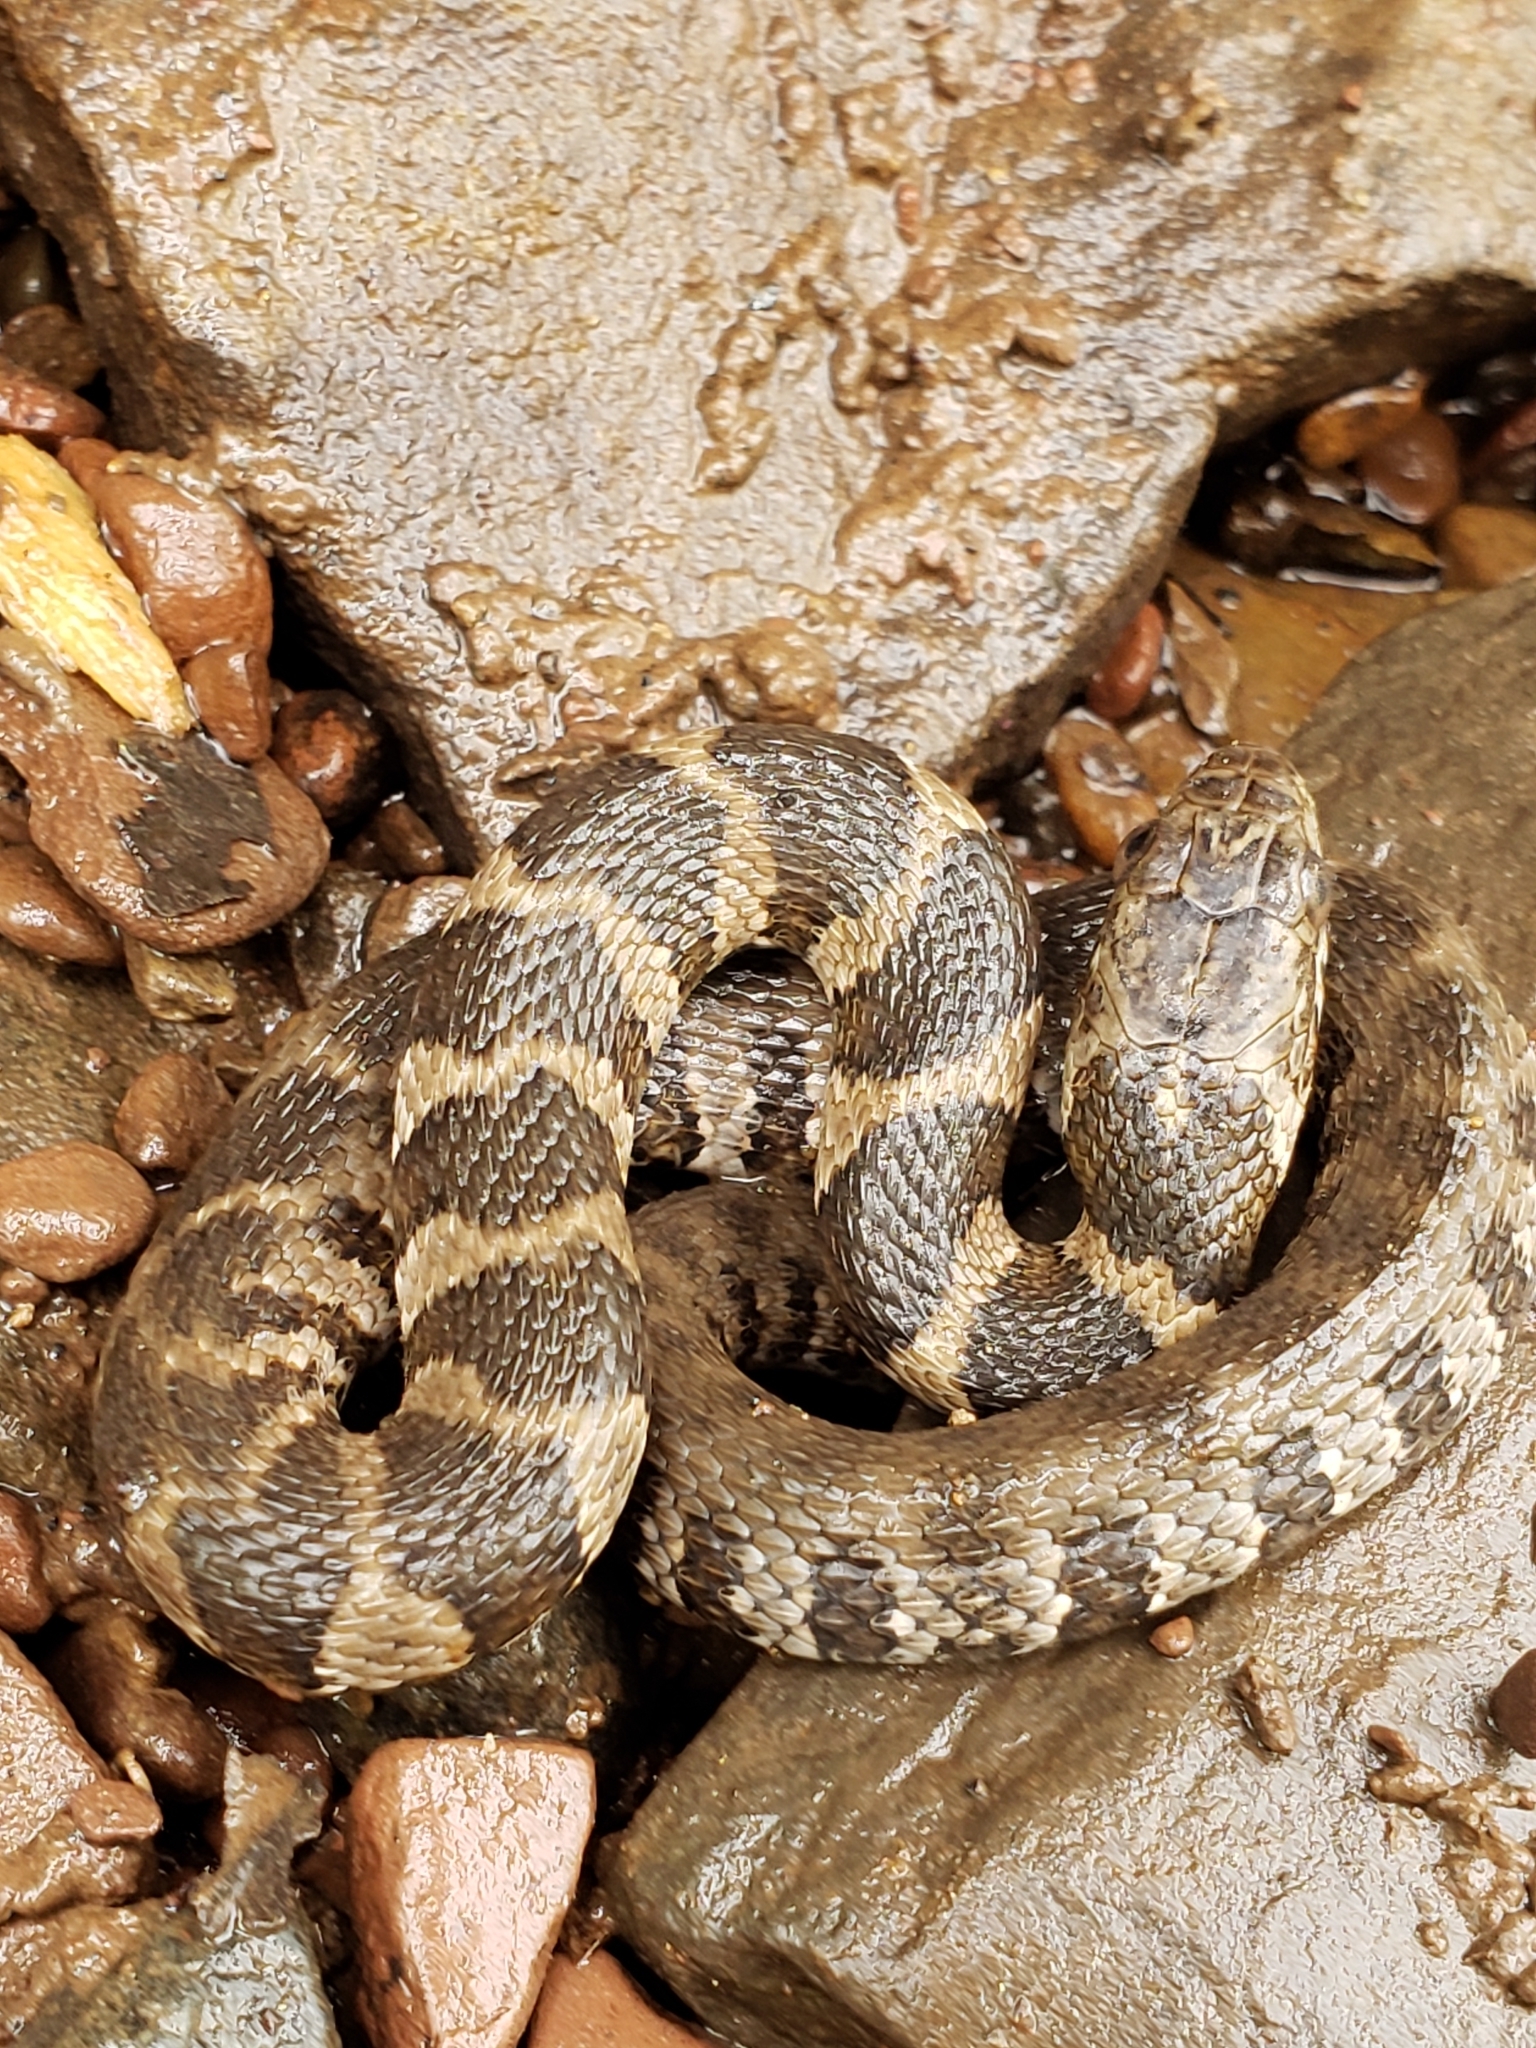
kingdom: Animalia
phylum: Chordata
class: Squamata
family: Colubridae
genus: Nerodia
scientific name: Nerodia sipedon
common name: Northern water snake
